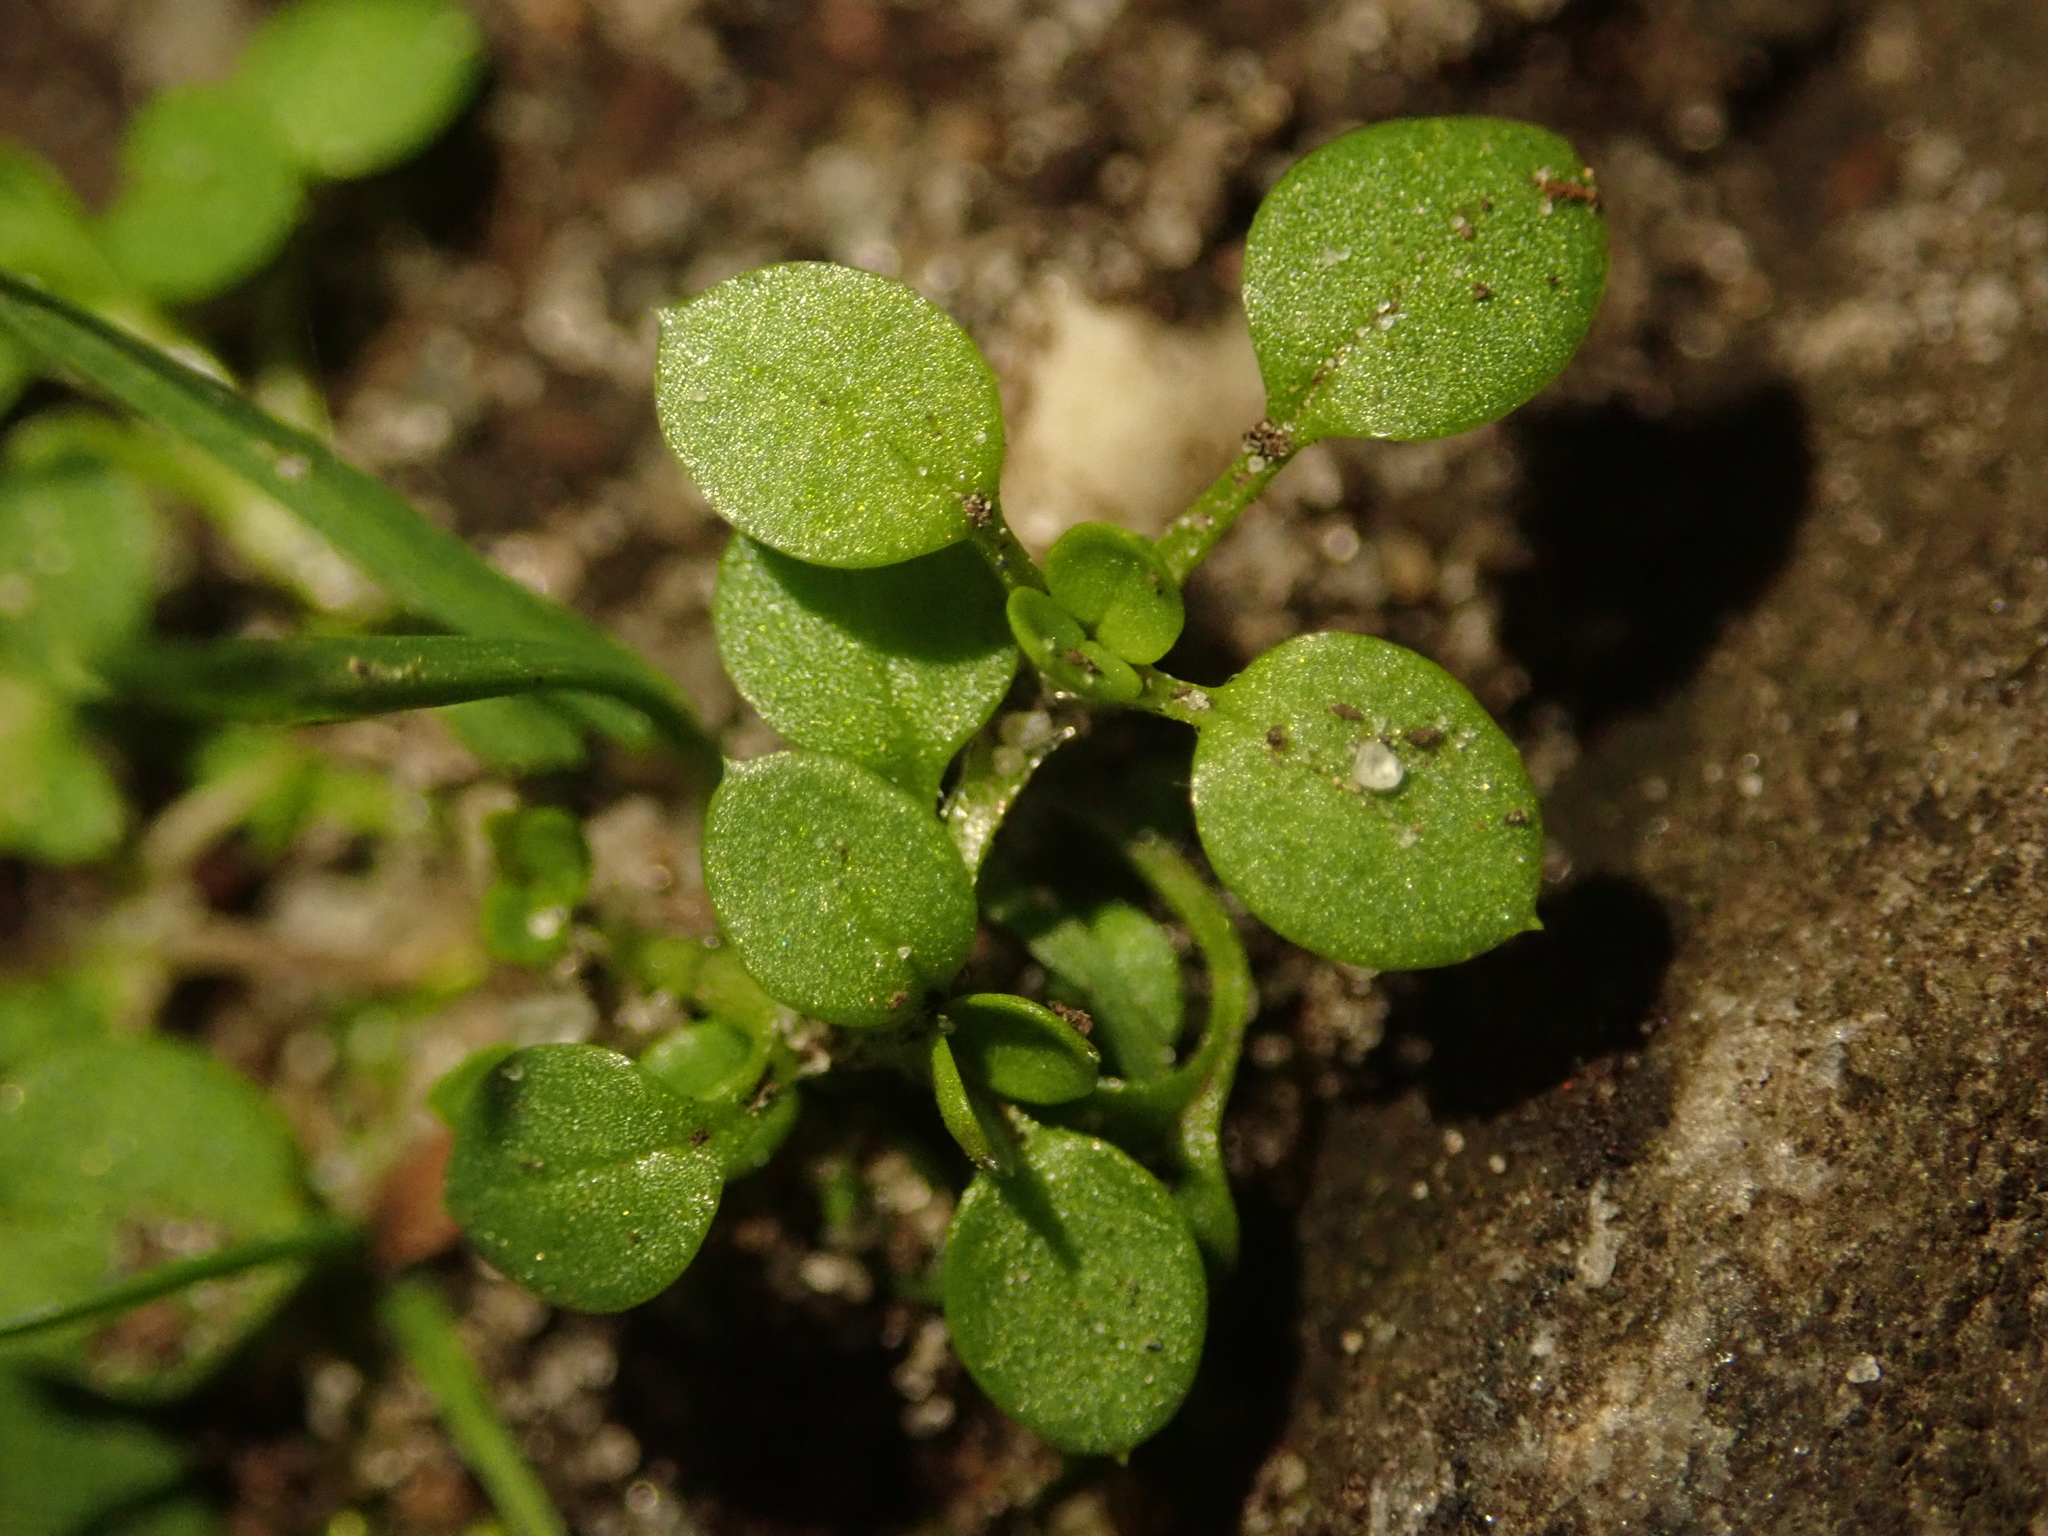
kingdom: Plantae
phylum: Tracheophyta
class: Magnoliopsida
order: Caryophyllales
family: Caryophyllaceae
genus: Stellaria
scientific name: Stellaria media
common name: Common chickweed
